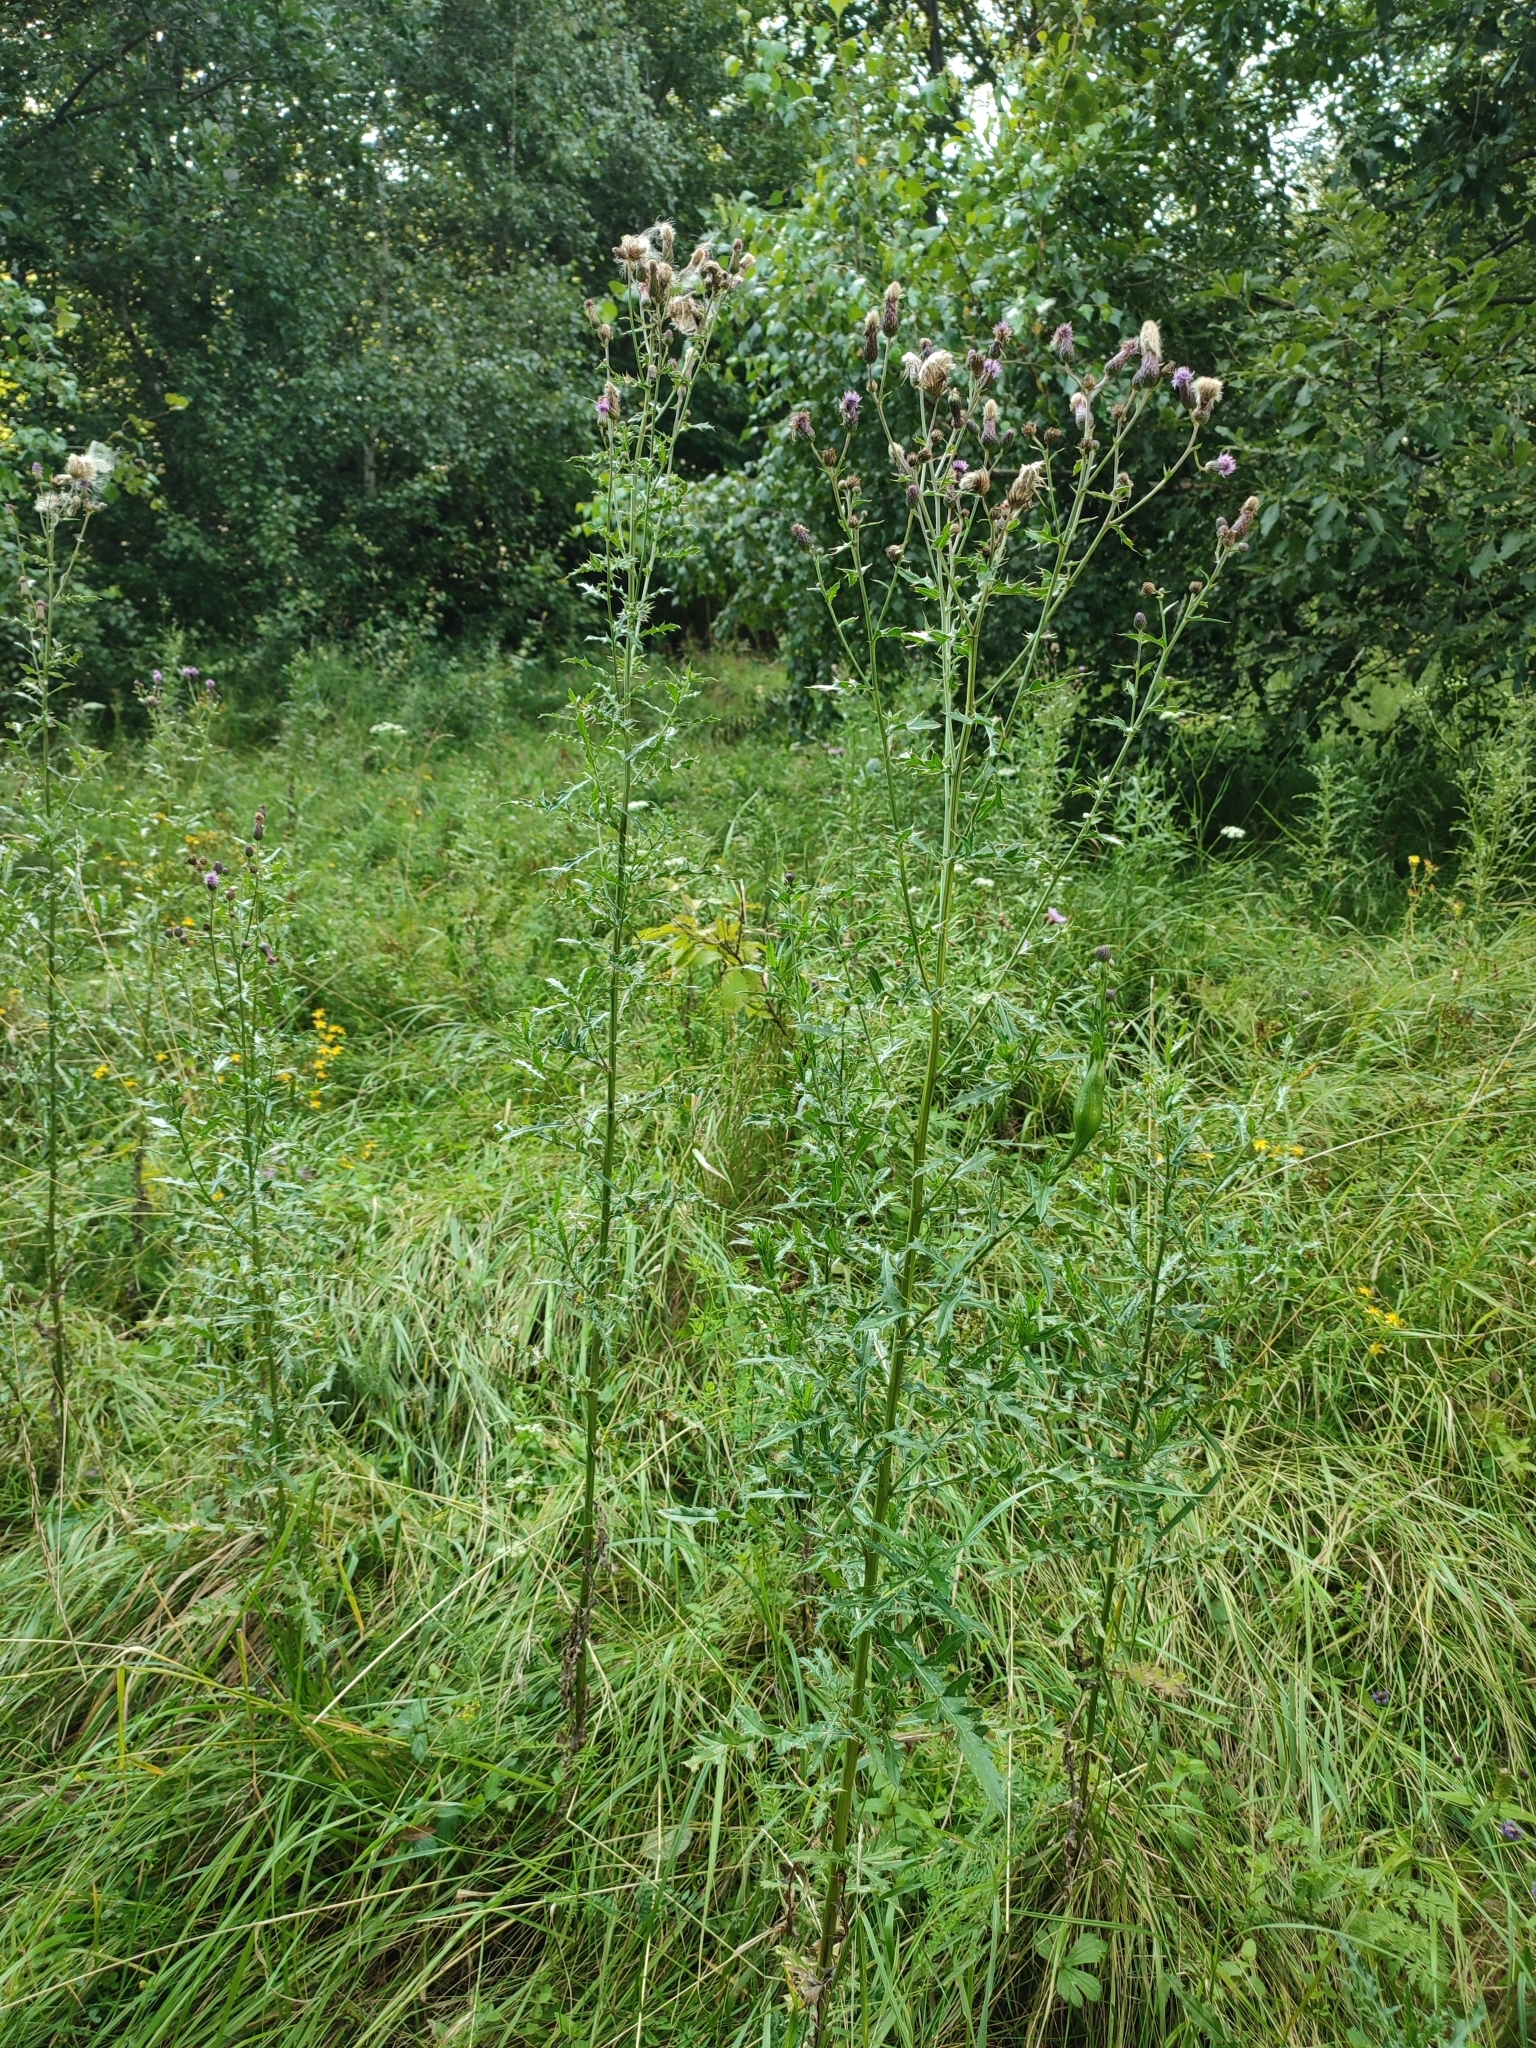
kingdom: Plantae
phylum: Tracheophyta
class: Magnoliopsida
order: Asterales
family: Asteraceae
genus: Cirsium
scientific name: Cirsium arvense
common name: Creeping thistle
